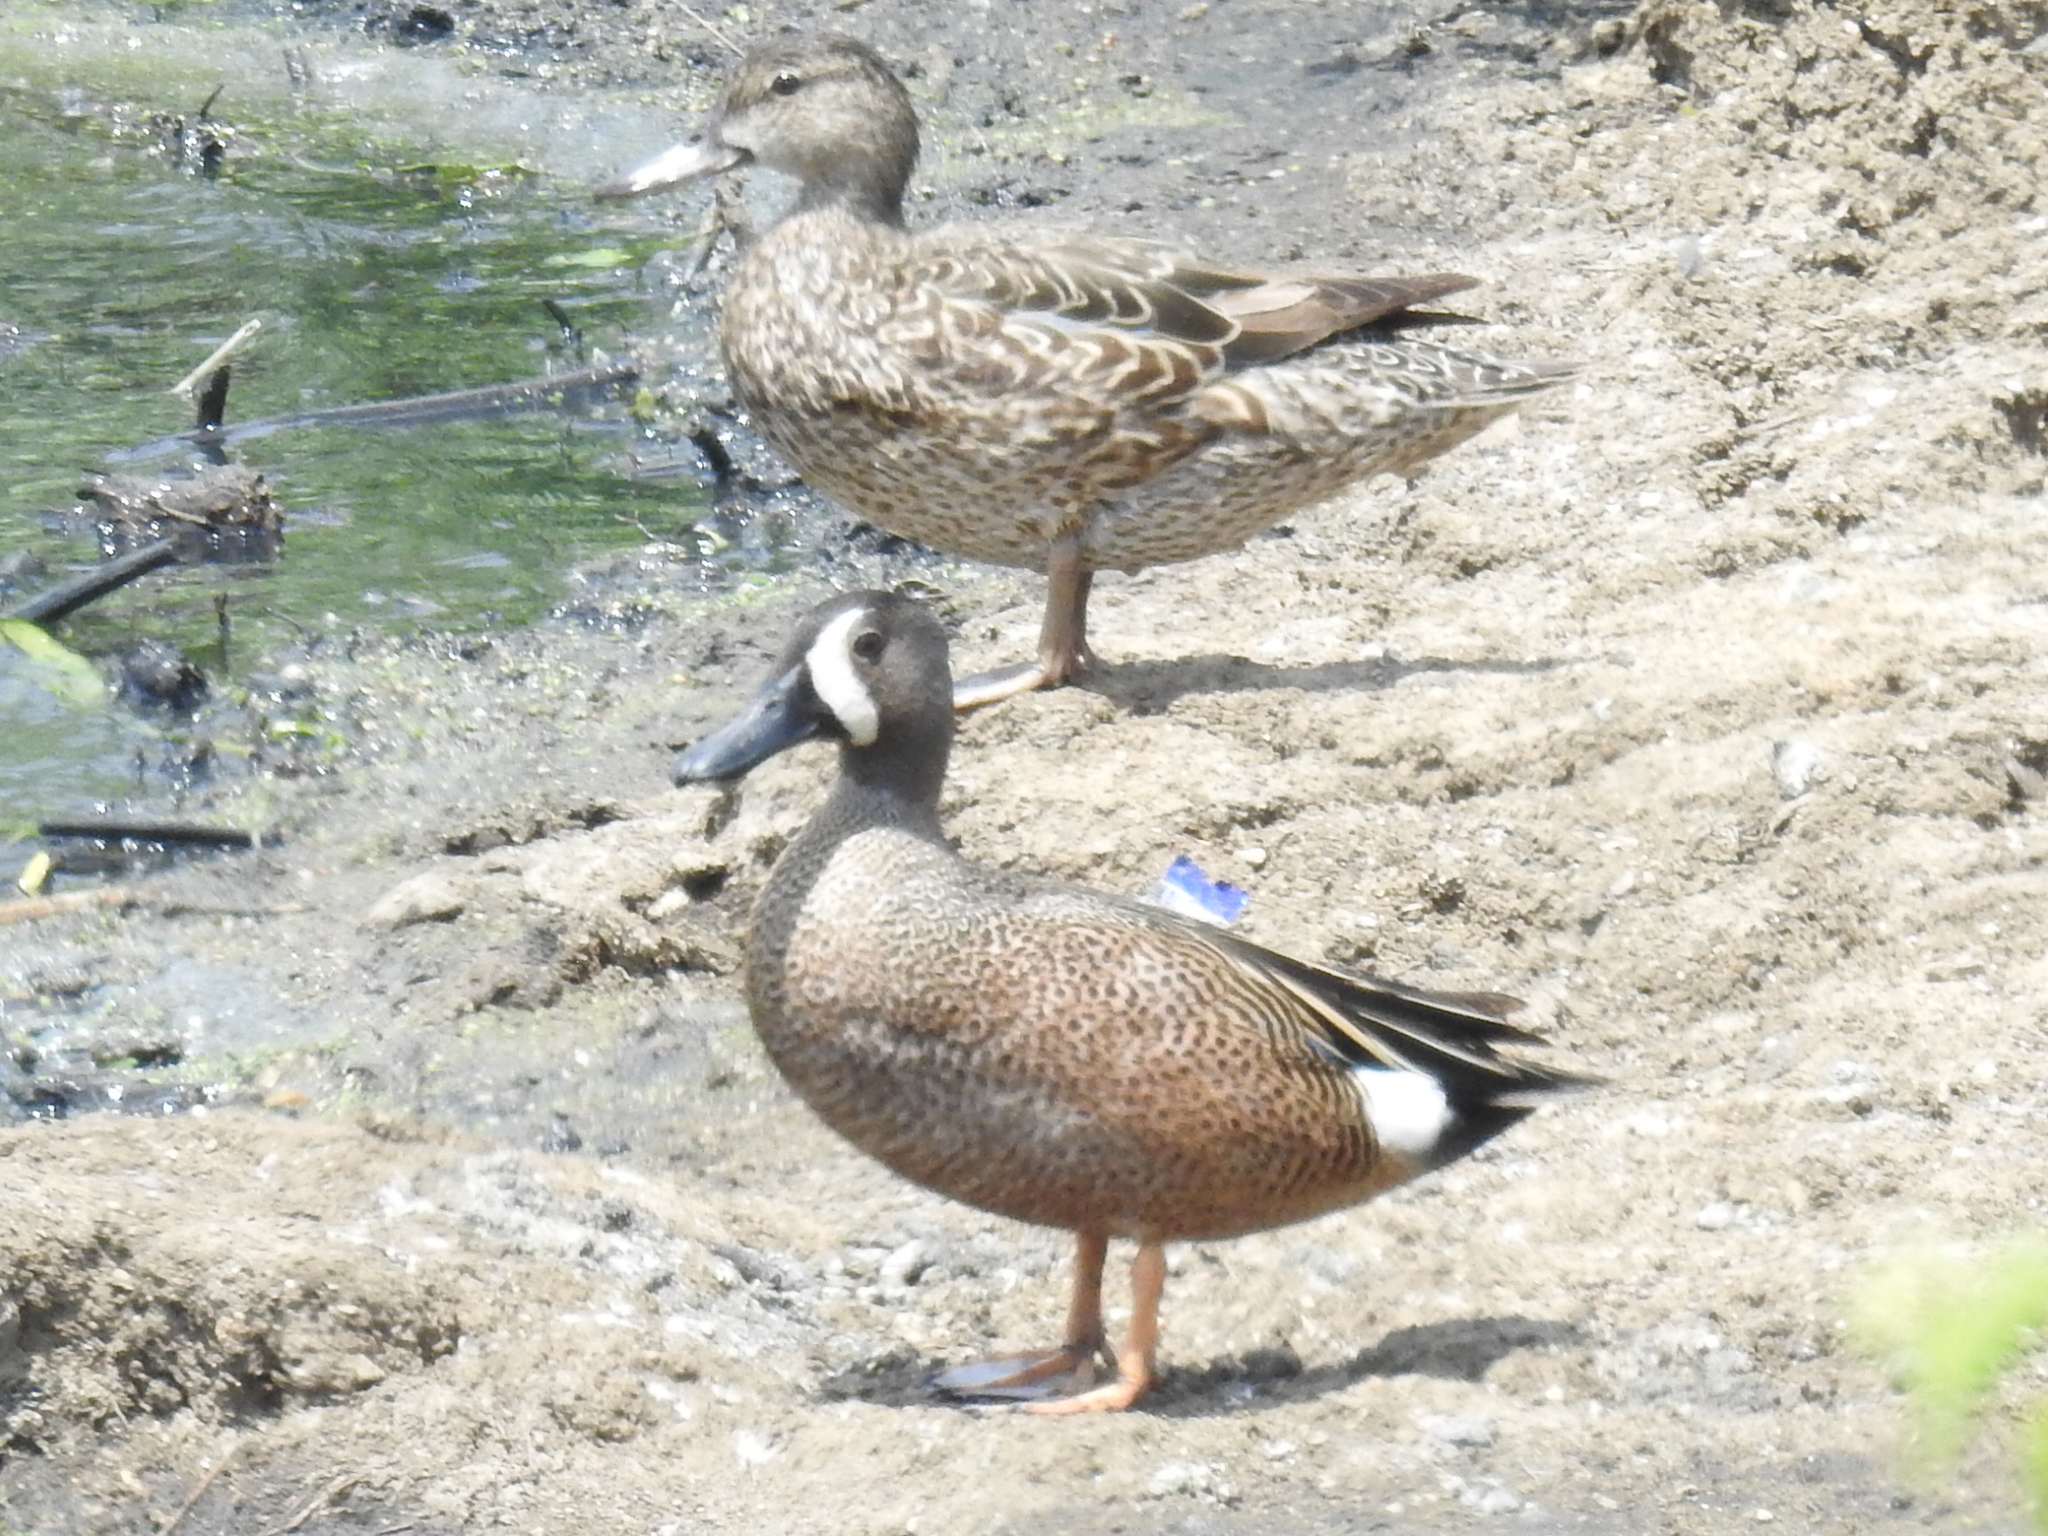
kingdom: Animalia
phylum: Chordata
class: Aves
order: Anseriformes
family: Anatidae
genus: Spatula
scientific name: Spatula discors
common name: Blue-winged teal
